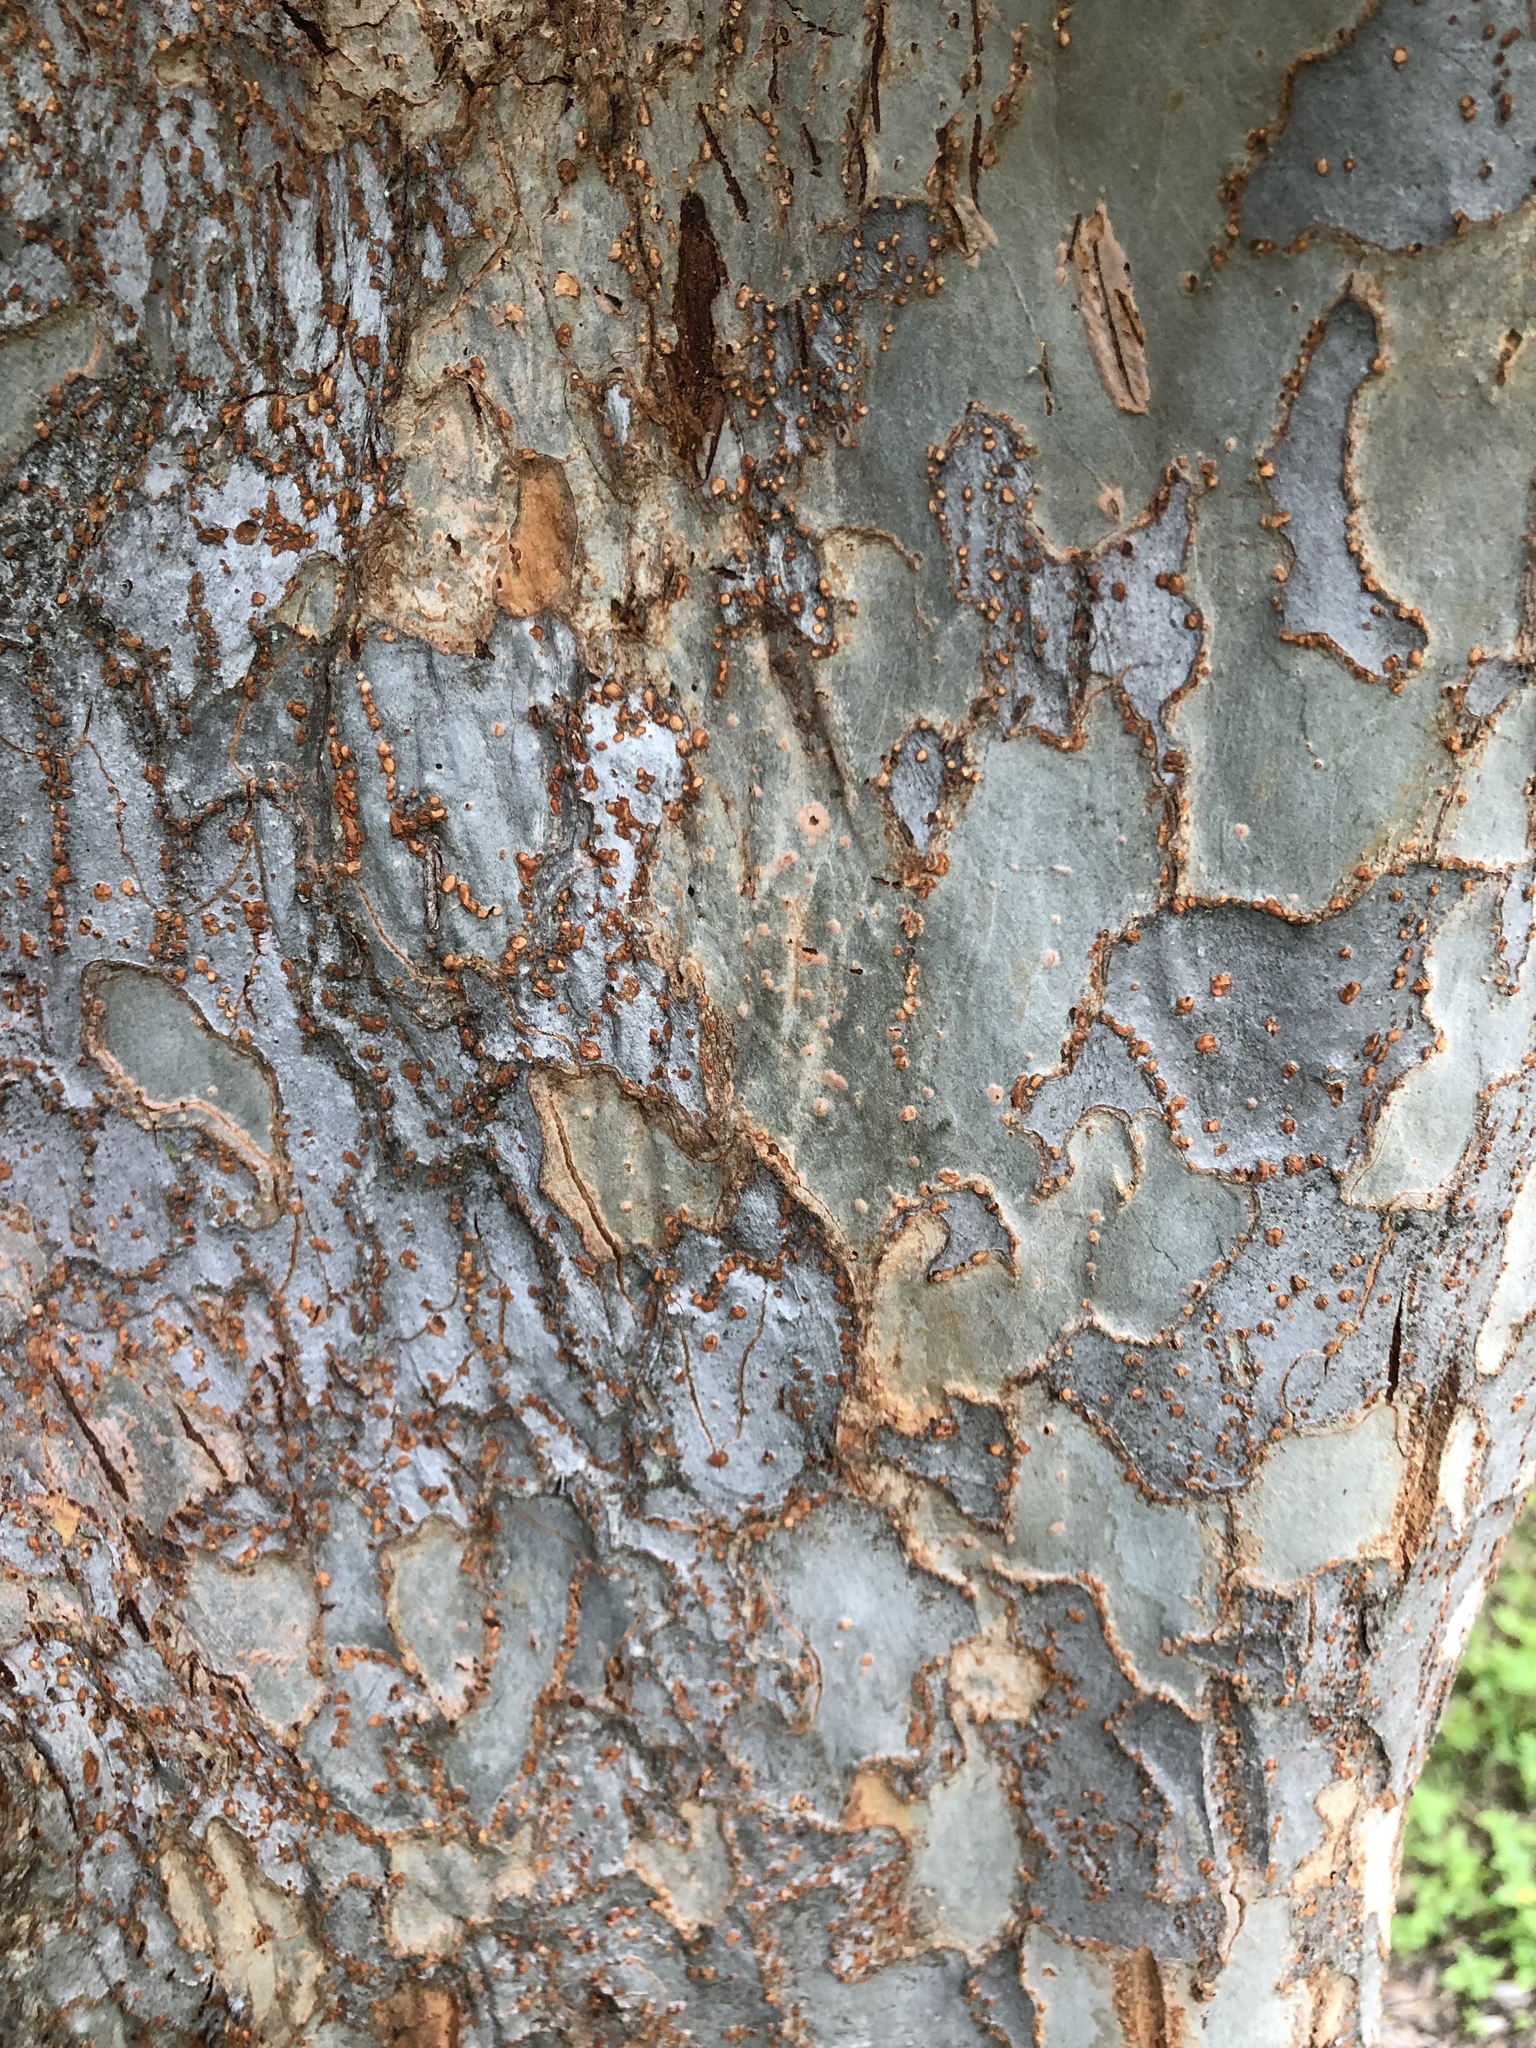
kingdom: Plantae
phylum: Tracheophyta
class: Magnoliopsida
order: Rosales
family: Ulmaceae
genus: Ulmus
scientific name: Ulmus parvifolia
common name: Chinese elm
